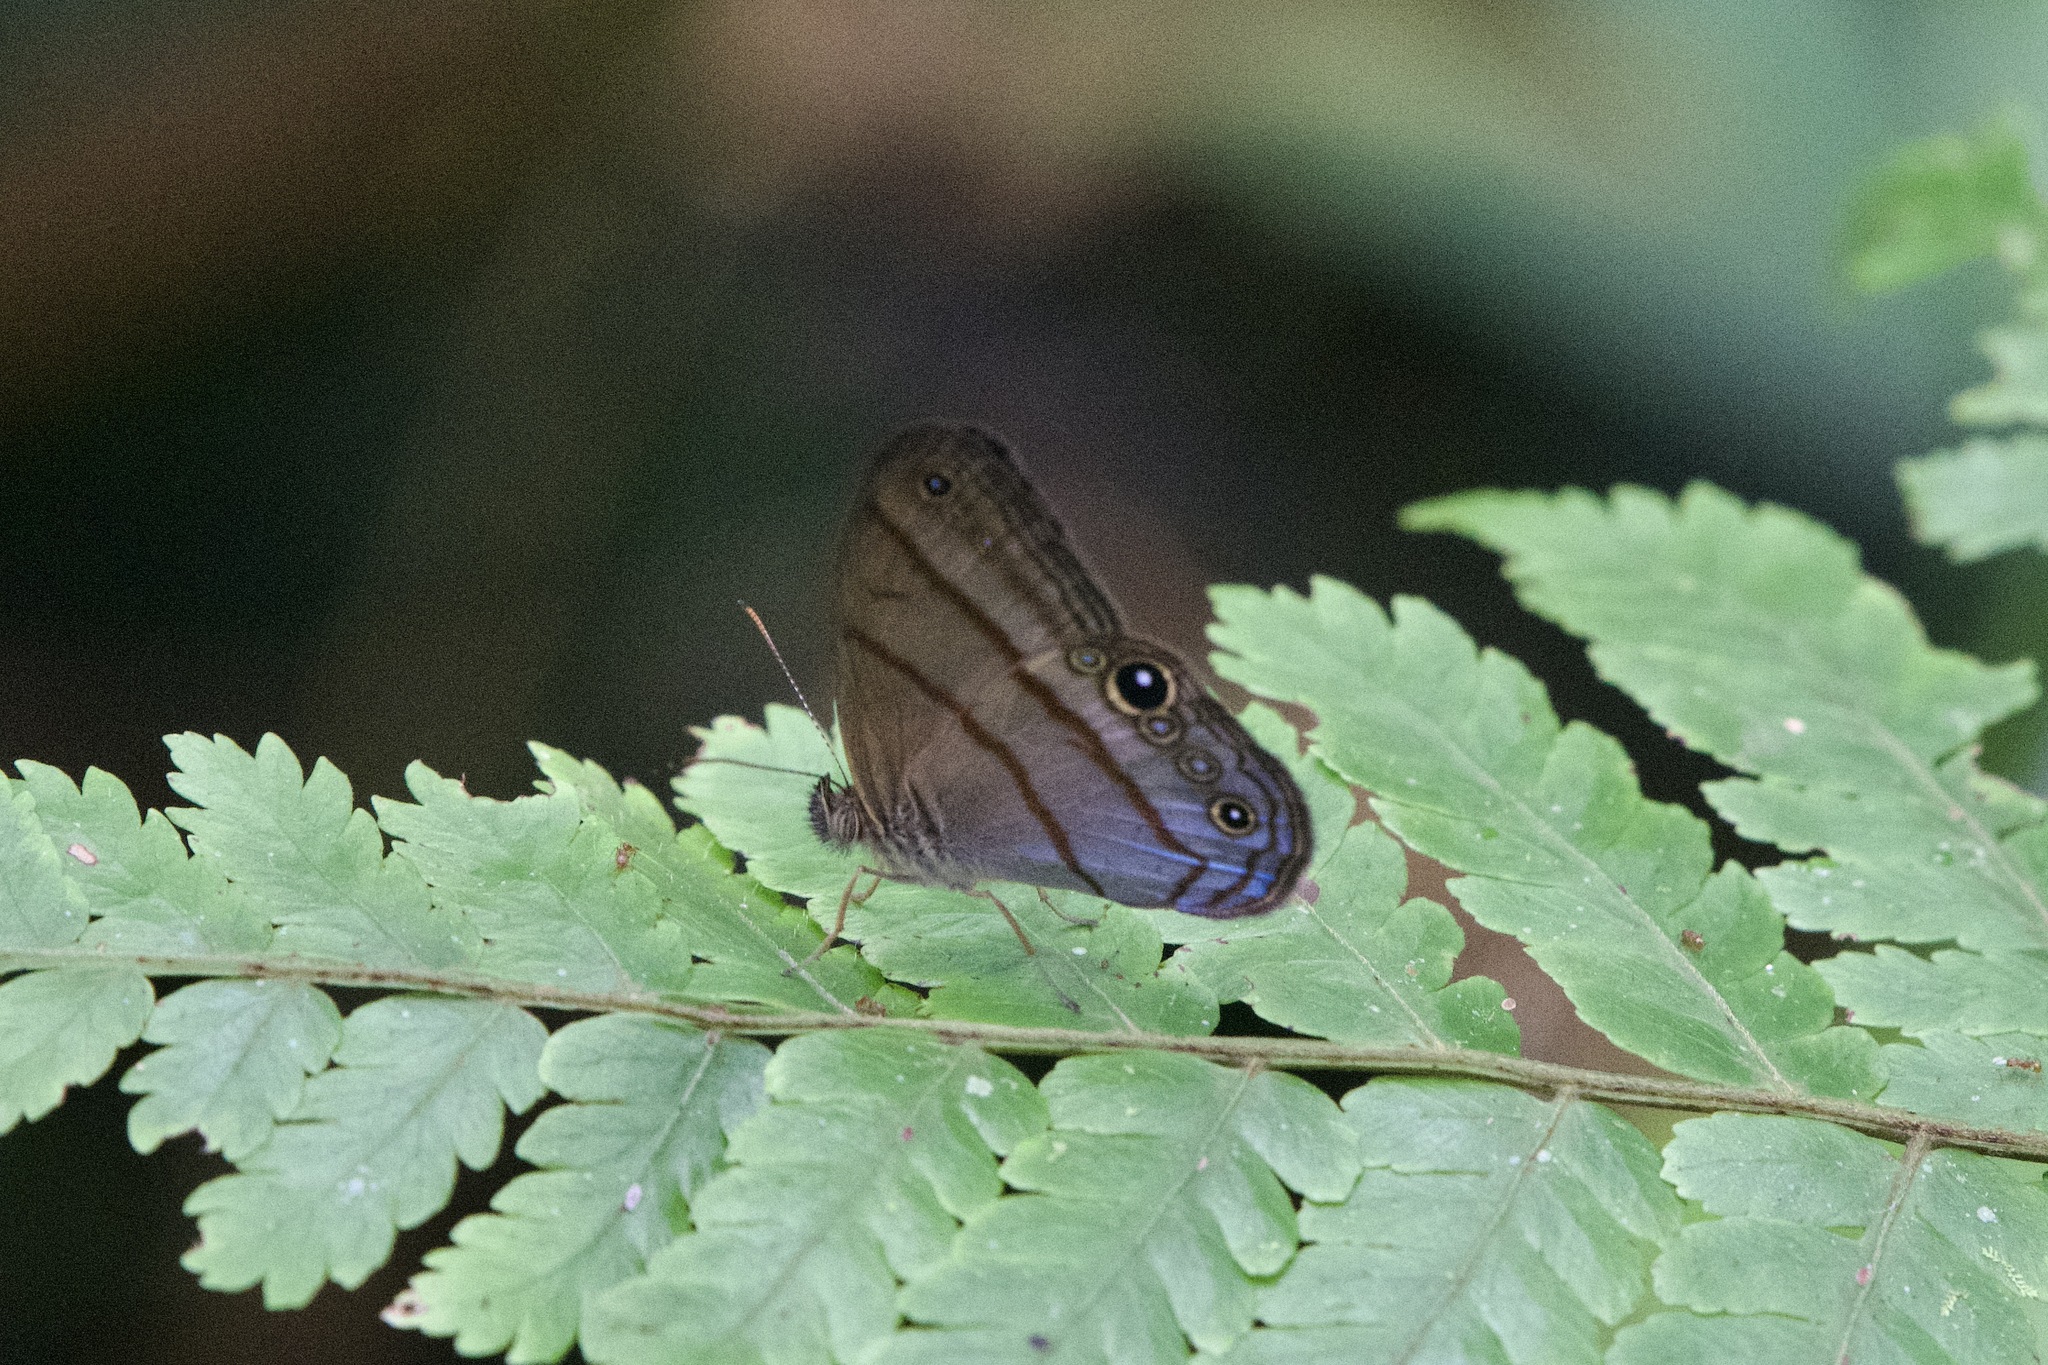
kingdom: Animalia
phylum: Arthropoda
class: Insecta
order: Lepidoptera
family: Nymphalidae
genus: Amiga
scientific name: Amiga arnaca
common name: Blue-topped satyr
